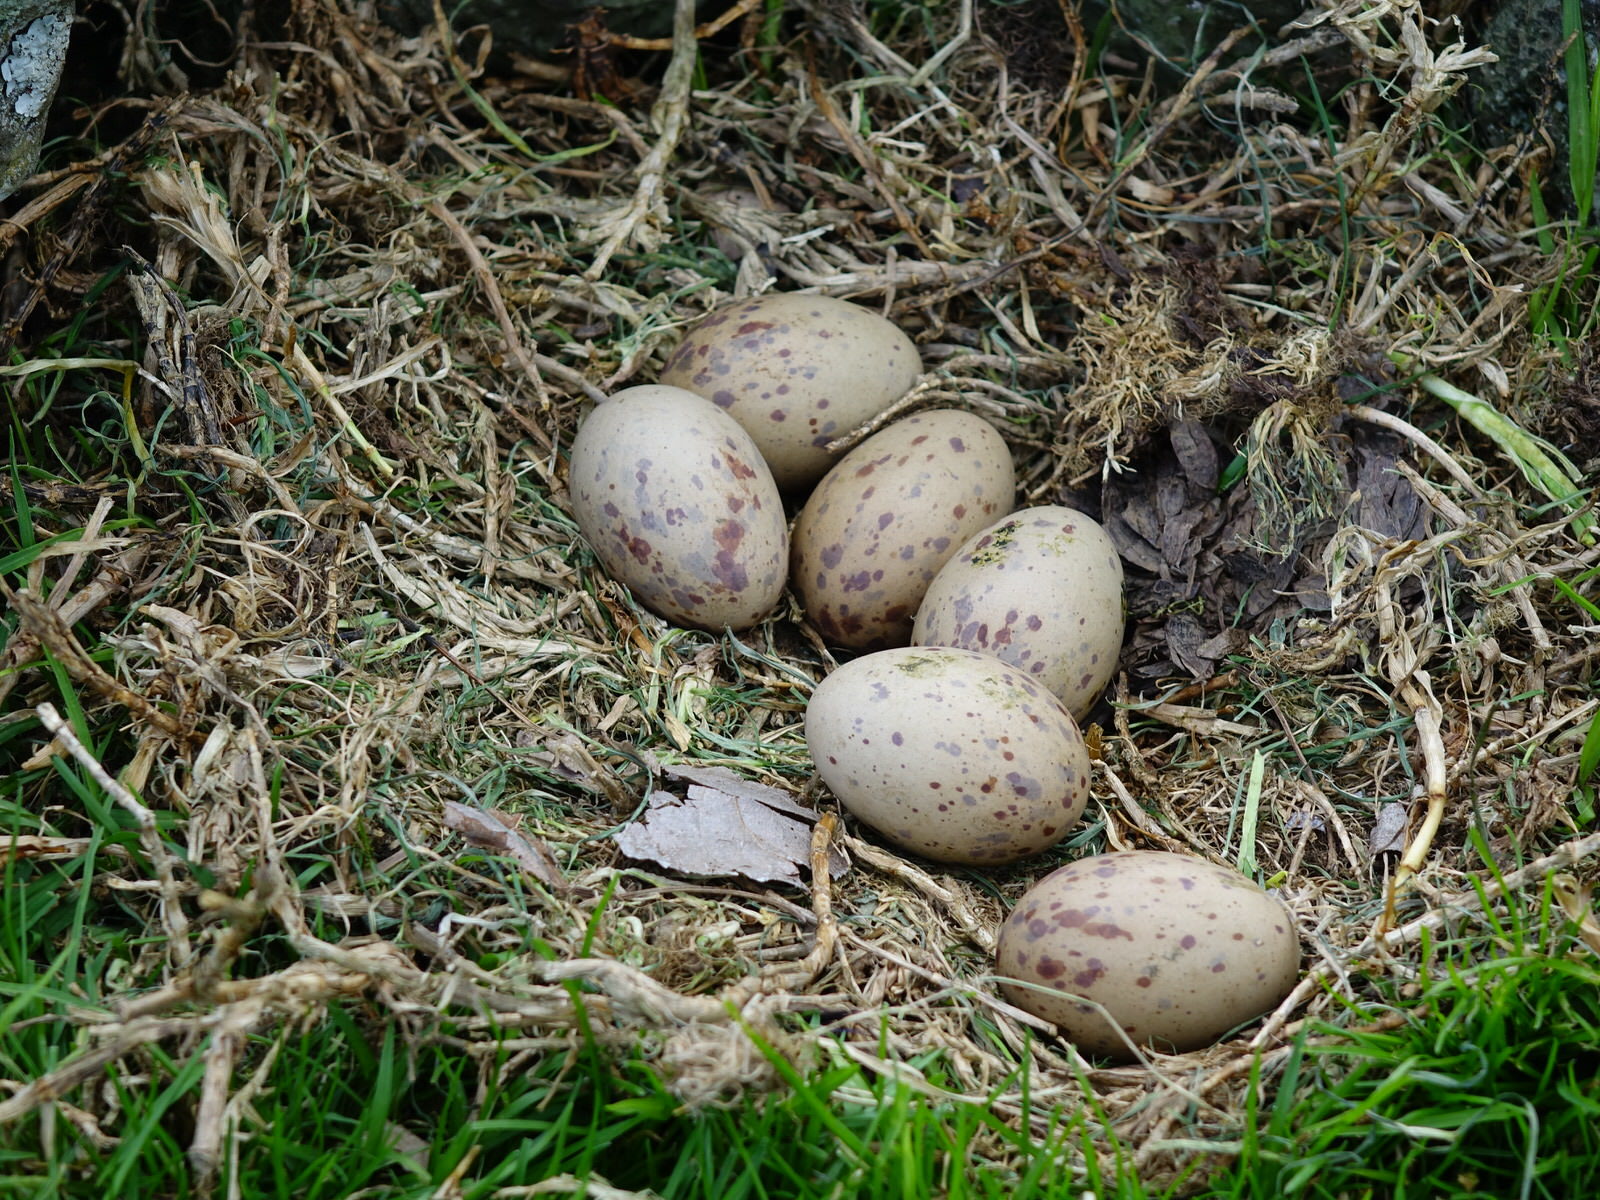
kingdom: Animalia
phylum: Chordata
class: Aves
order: Gruiformes
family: Rallidae
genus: Porphyrio
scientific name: Porphyrio melanotus
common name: Australasian swamphen
